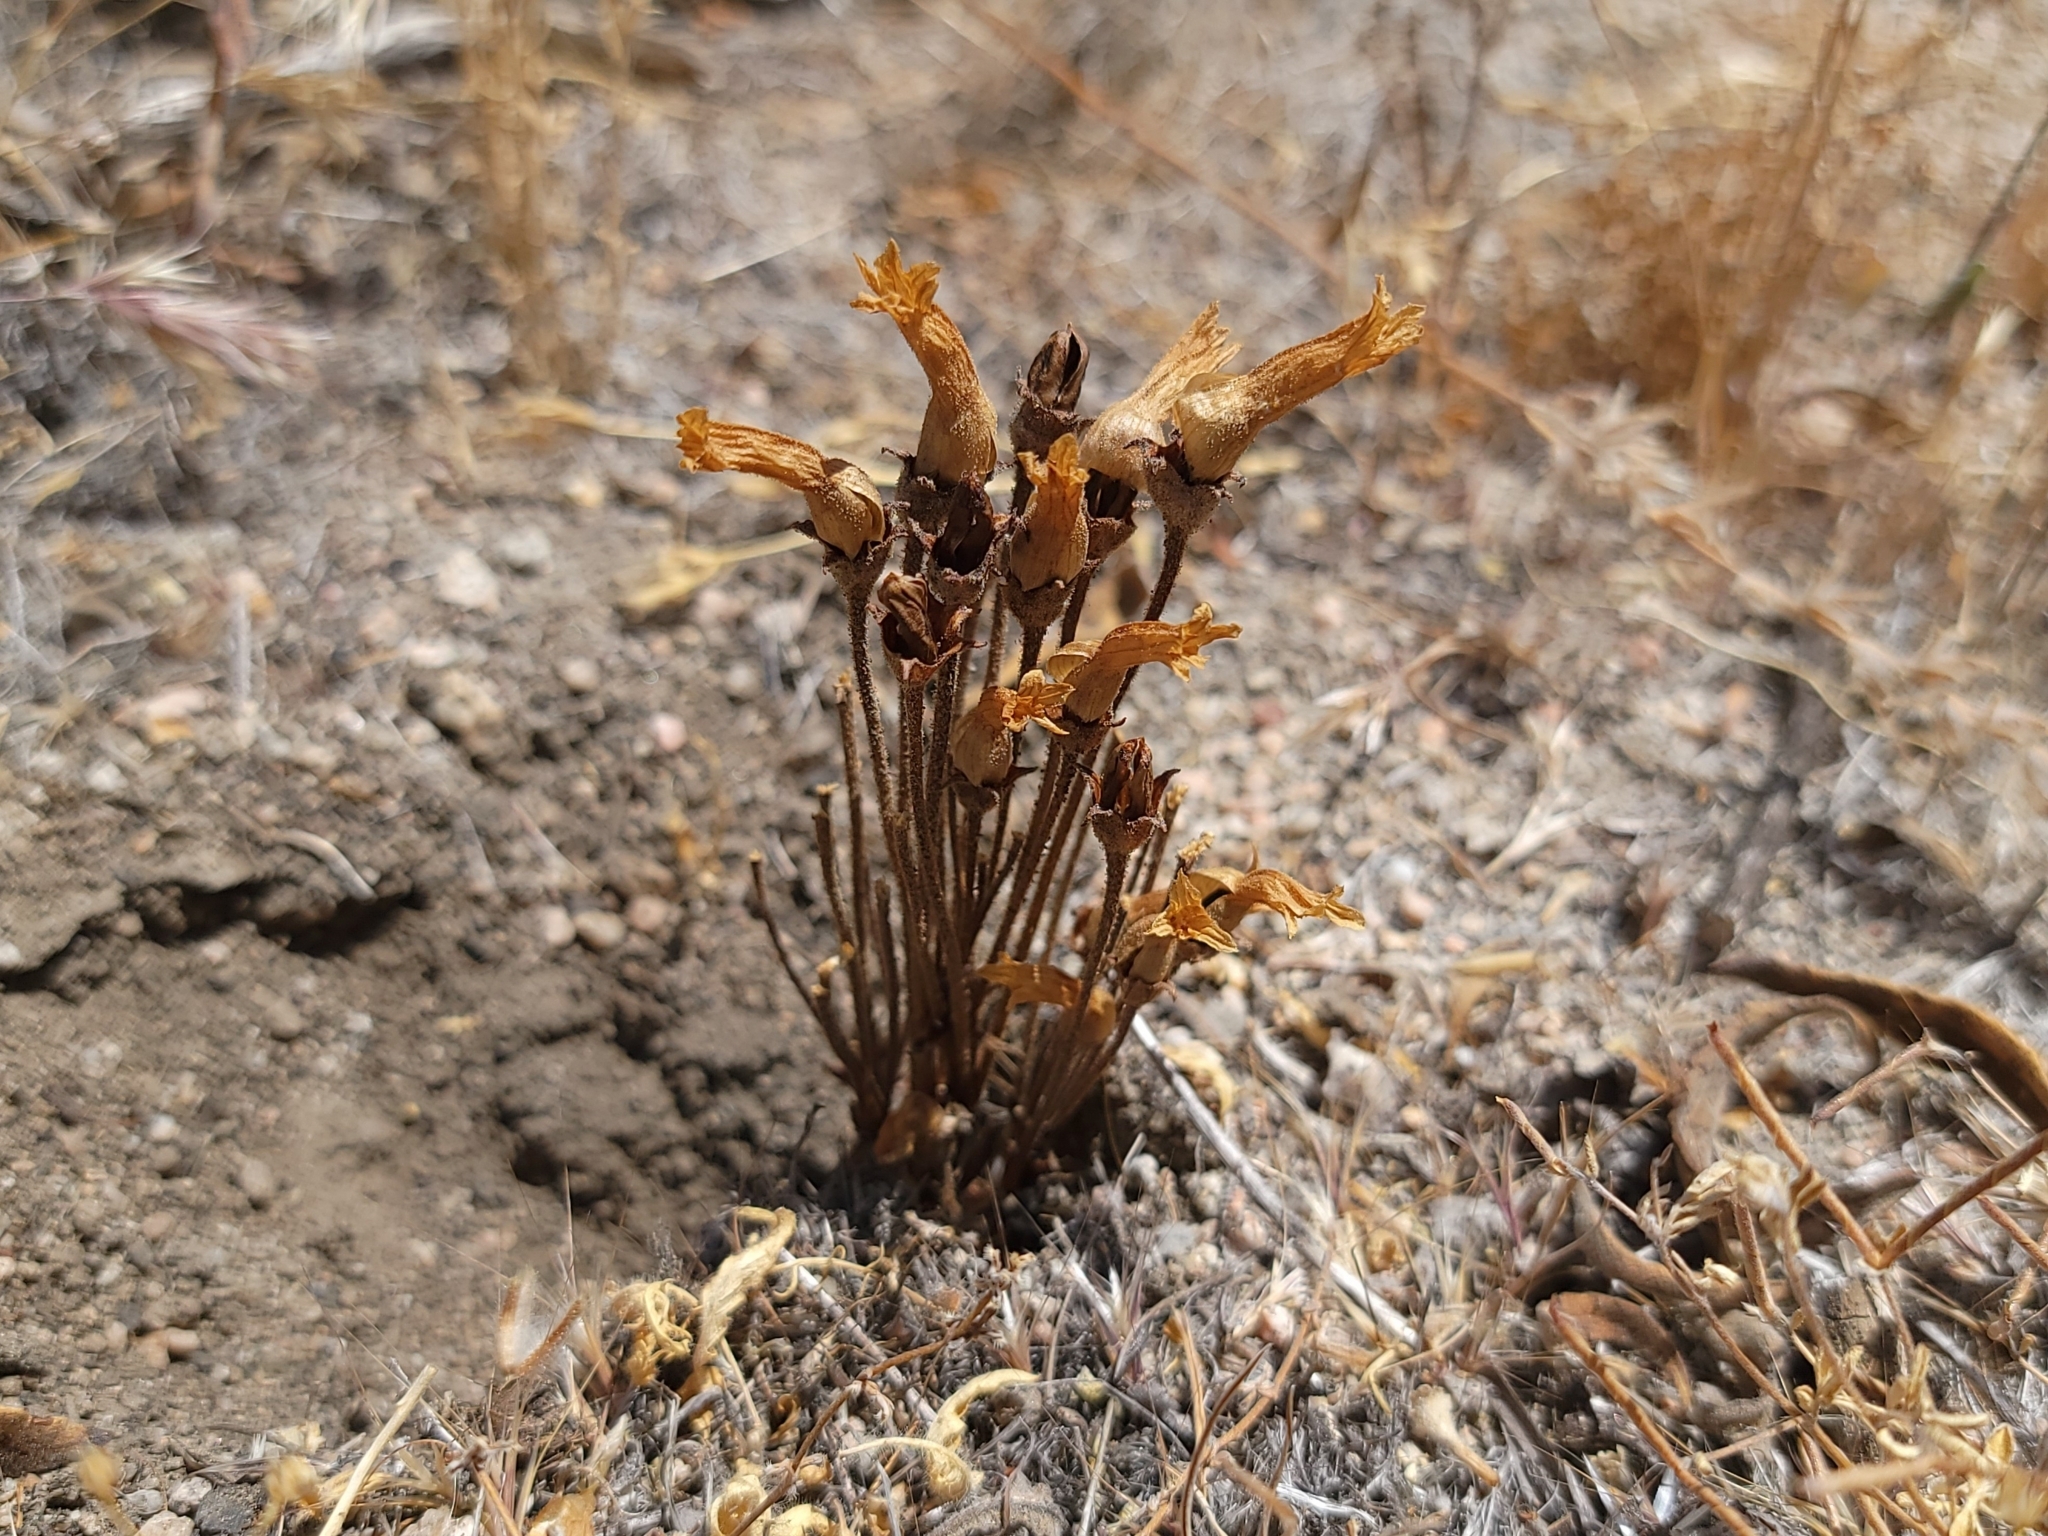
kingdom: Plantae
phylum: Tracheophyta
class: Magnoliopsida
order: Lamiales
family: Orobanchaceae
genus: Aphyllon
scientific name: Aphyllon franciscanum
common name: San francisco broomrape
